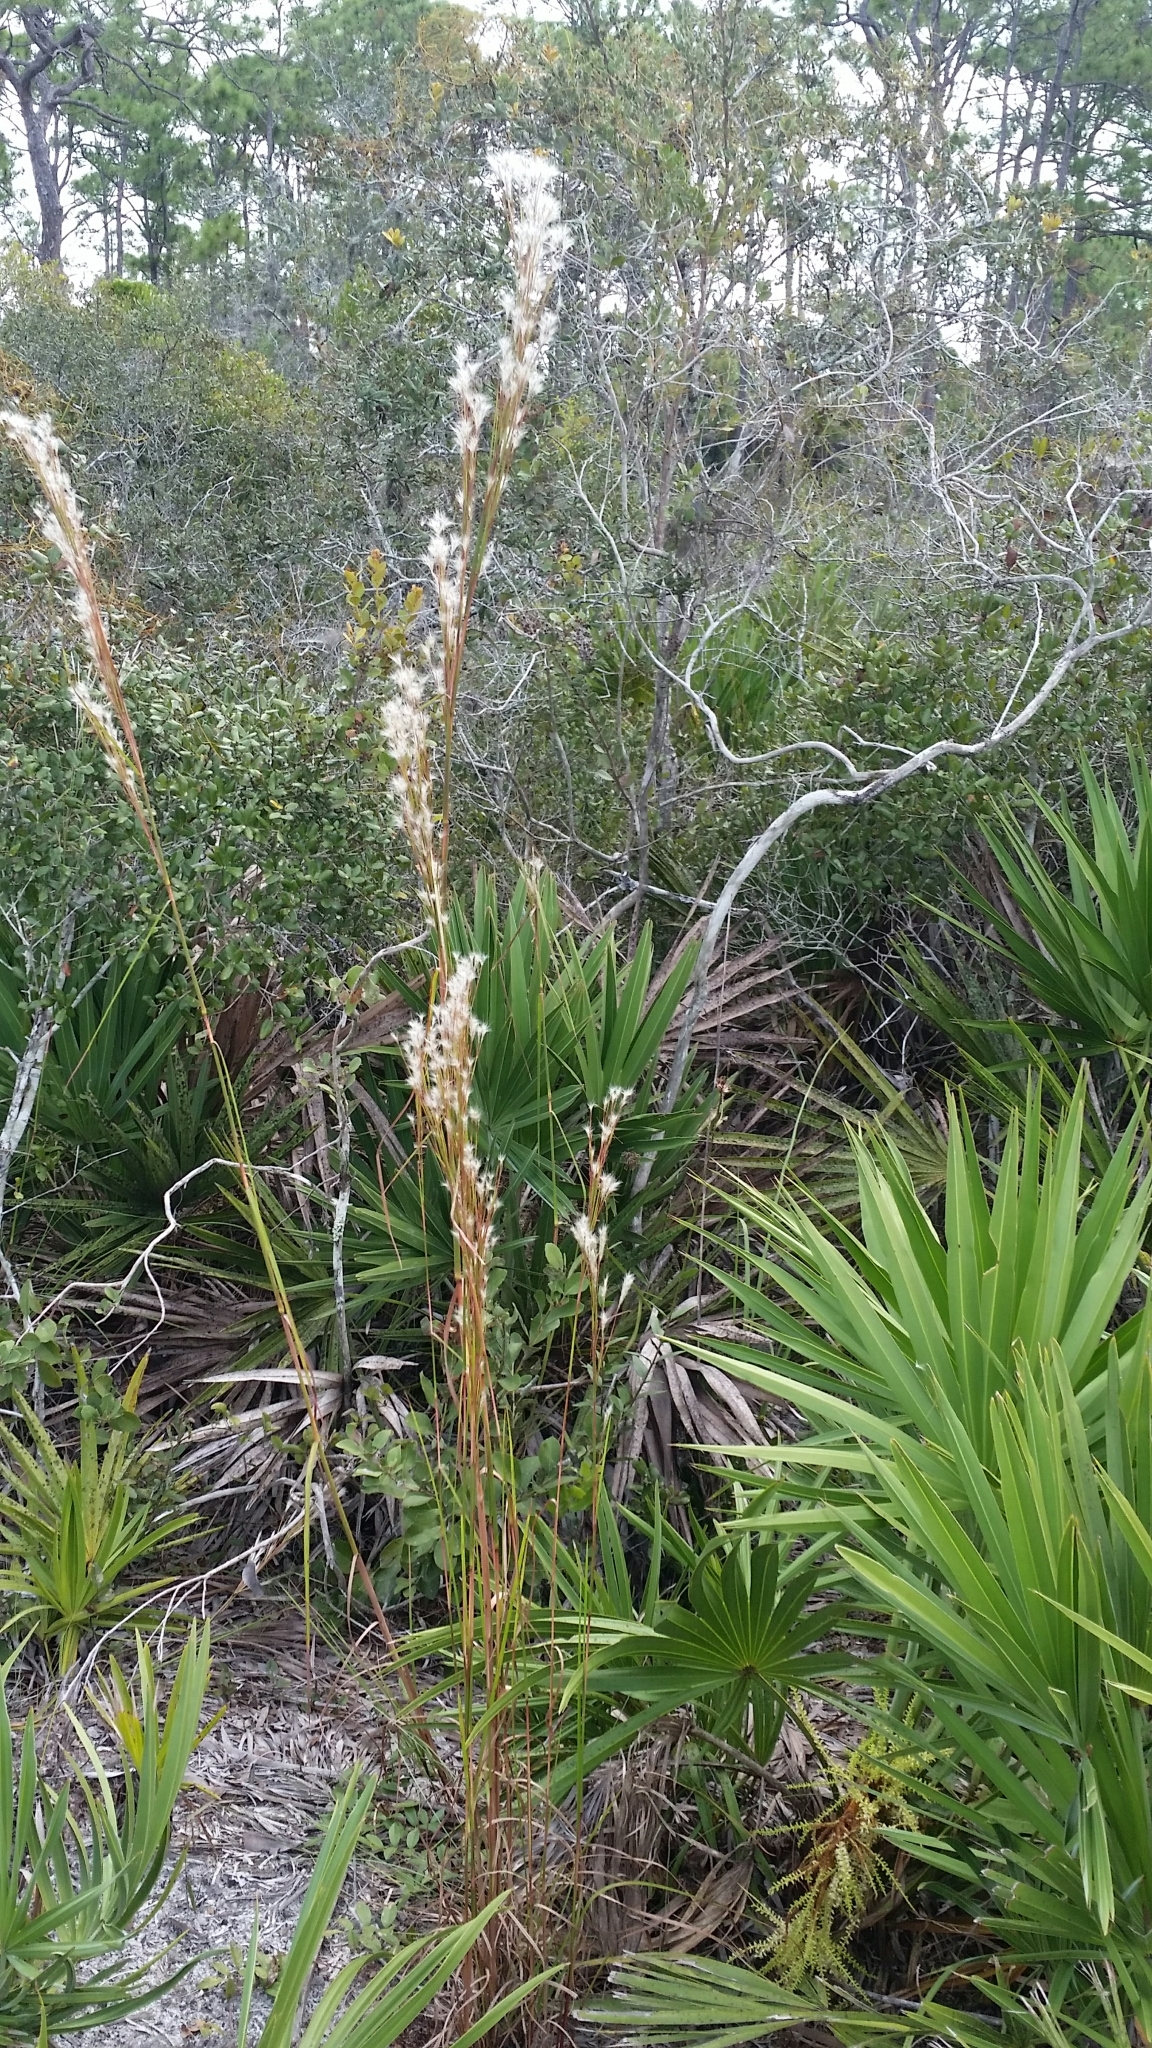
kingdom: Plantae
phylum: Tracheophyta
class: Liliopsida
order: Poales
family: Poaceae
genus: Andropogon
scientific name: Andropogon floridanus
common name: Florida bluestem
